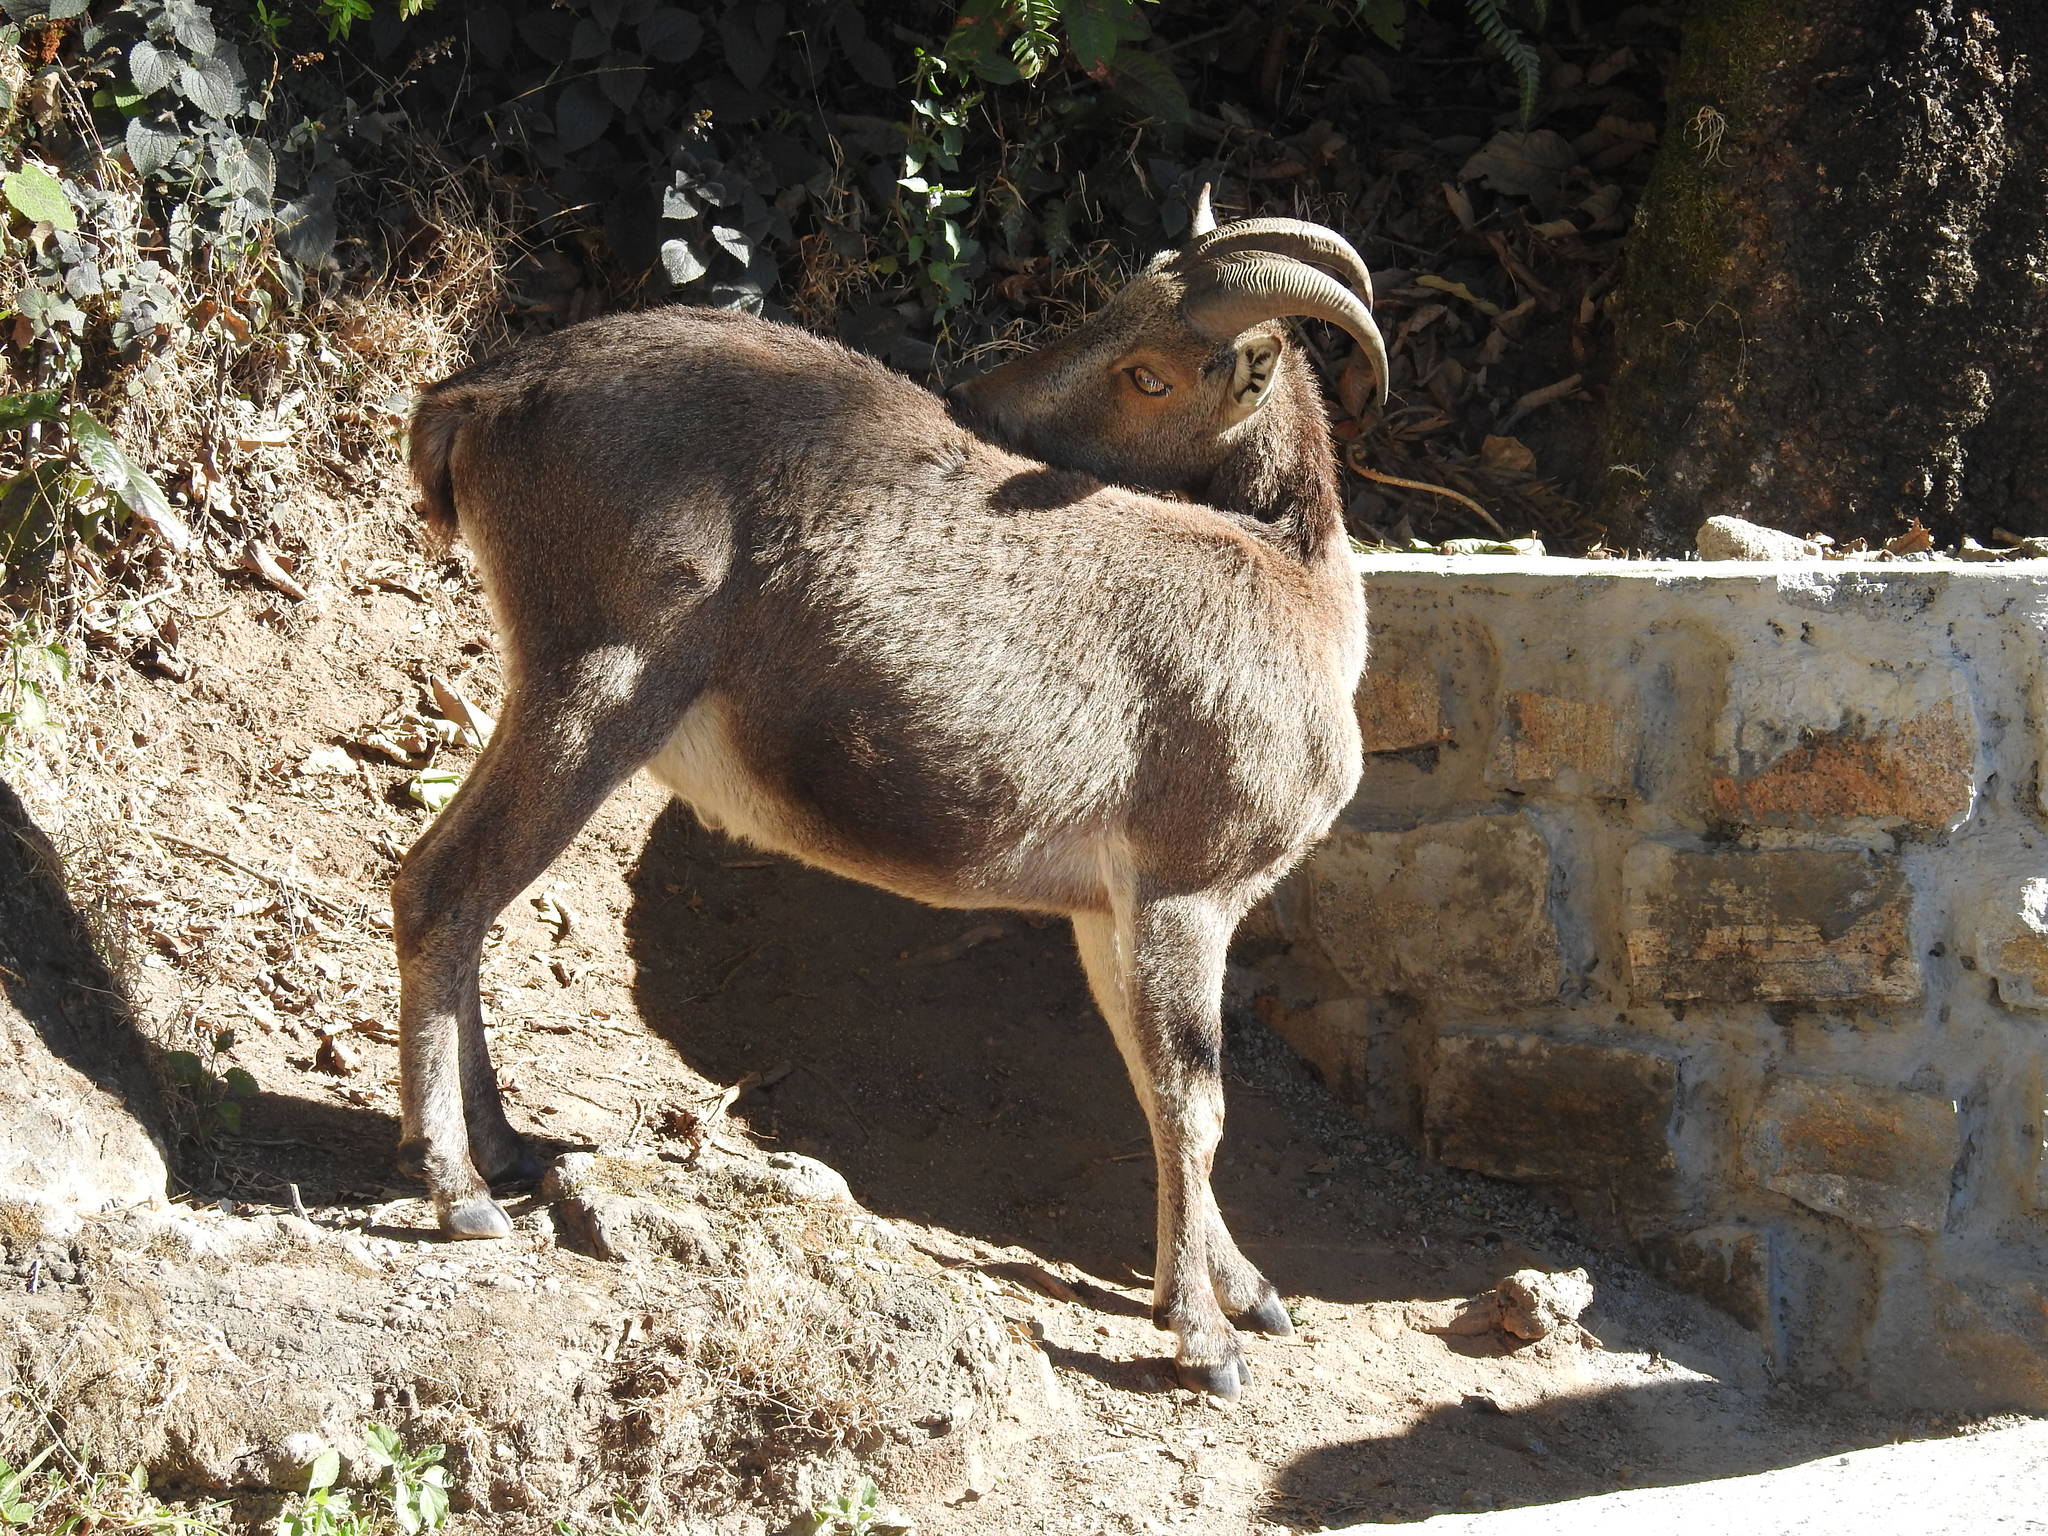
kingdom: Animalia
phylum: Chordata
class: Mammalia
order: Artiodactyla
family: Bovidae
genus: Hemitragus
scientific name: Hemitragus hylocrius
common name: Nilgiri tahr
